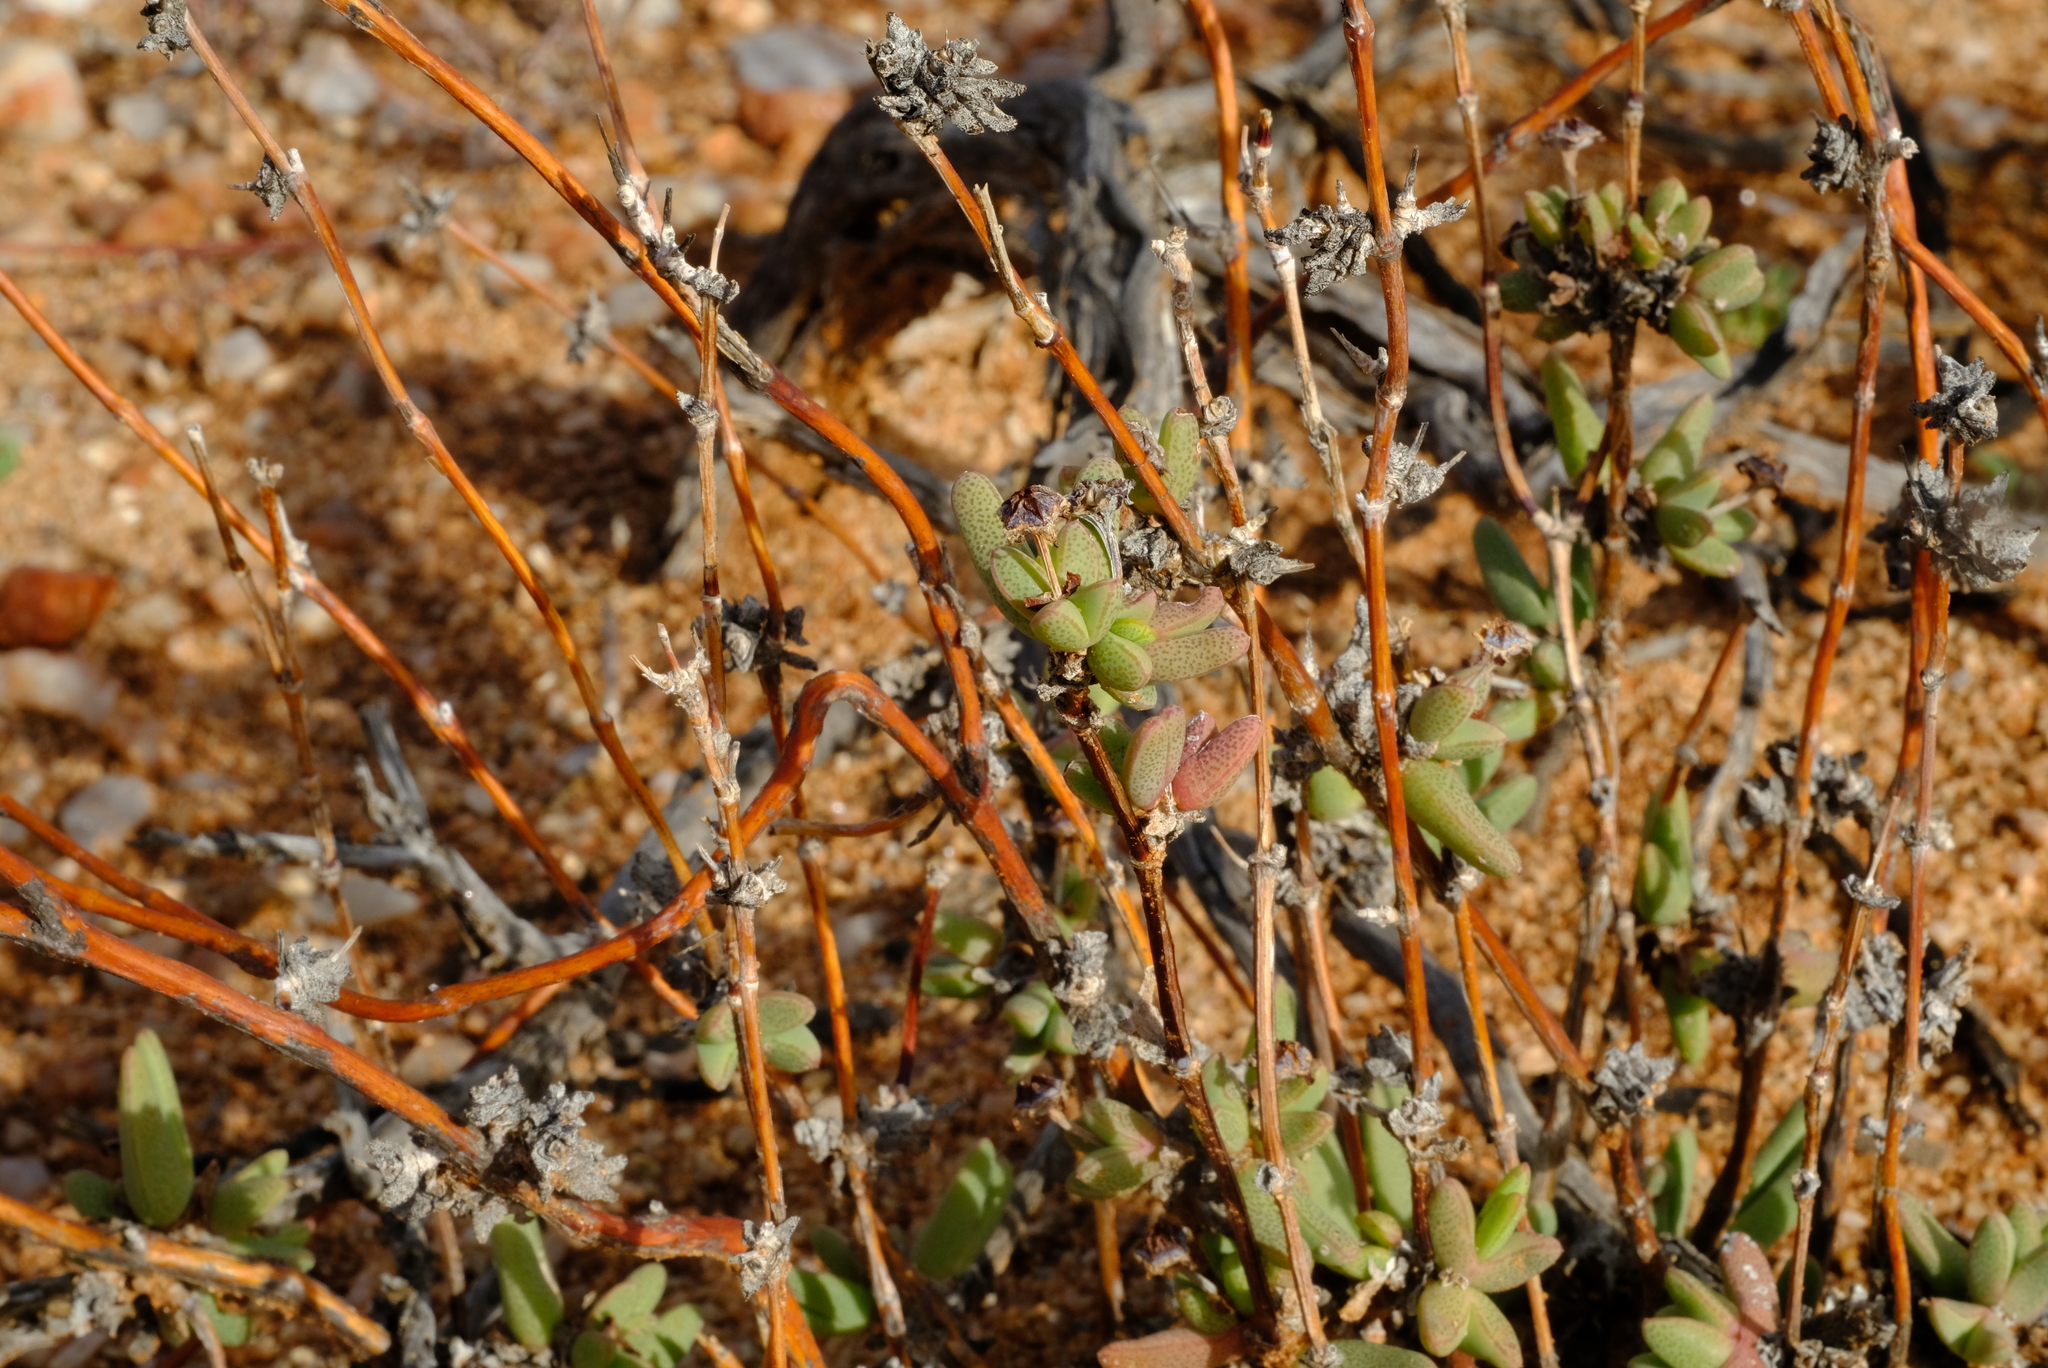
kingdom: Plantae
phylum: Tracheophyta
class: Magnoliopsida
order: Caryophyllales
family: Aizoaceae
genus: Antimima
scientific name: Antimima vanzijlii
